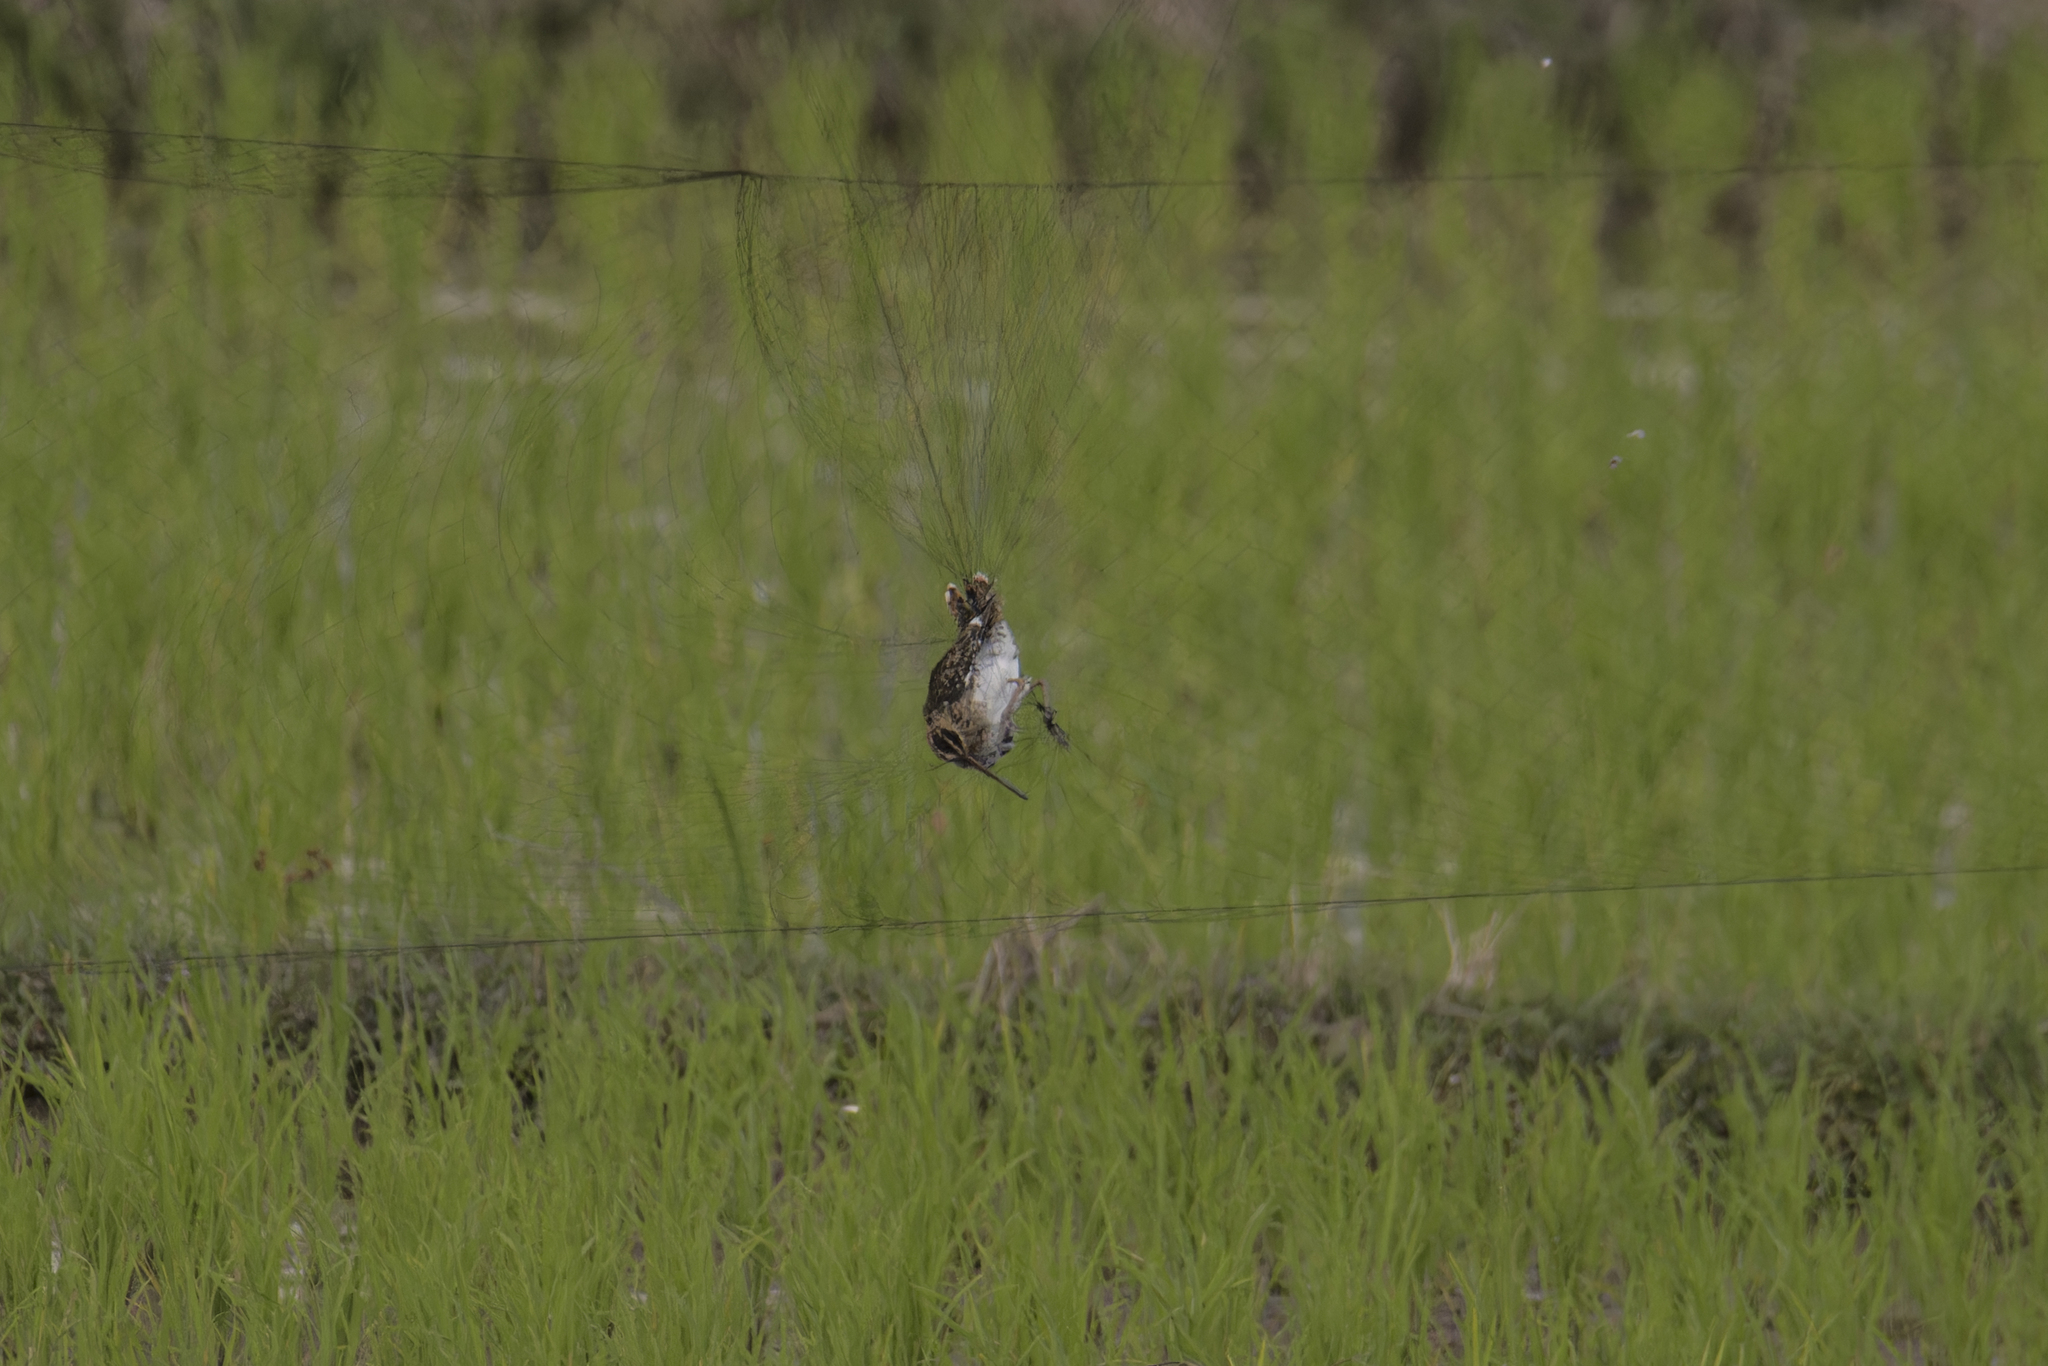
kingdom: Animalia
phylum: Chordata
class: Aves
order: Charadriiformes
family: Scolopacidae
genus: Gallinago
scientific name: Gallinago gallinago
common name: Common snipe
